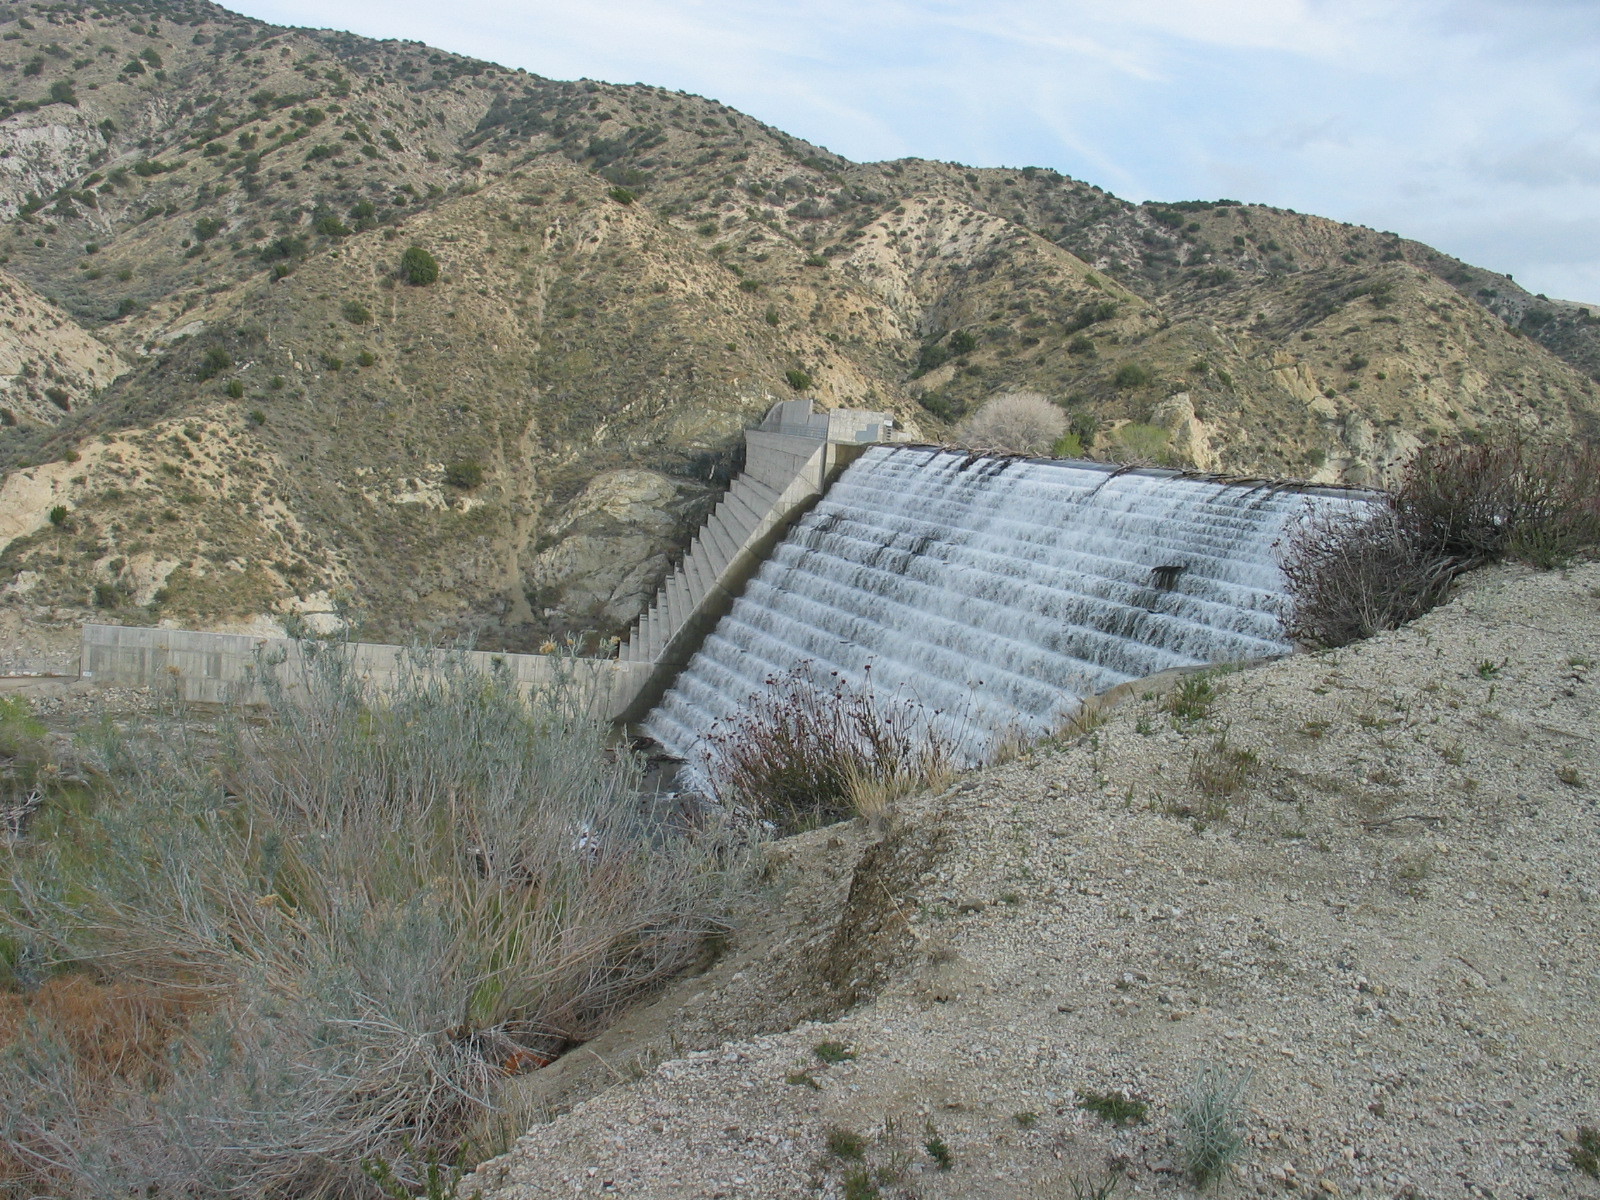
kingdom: Plantae
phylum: Tracheophyta
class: Magnoliopsida
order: Caryophyllales
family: Polygonaceae
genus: Eriogonum
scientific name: Eriogonum fasciculatum
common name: California wild buckwheat
